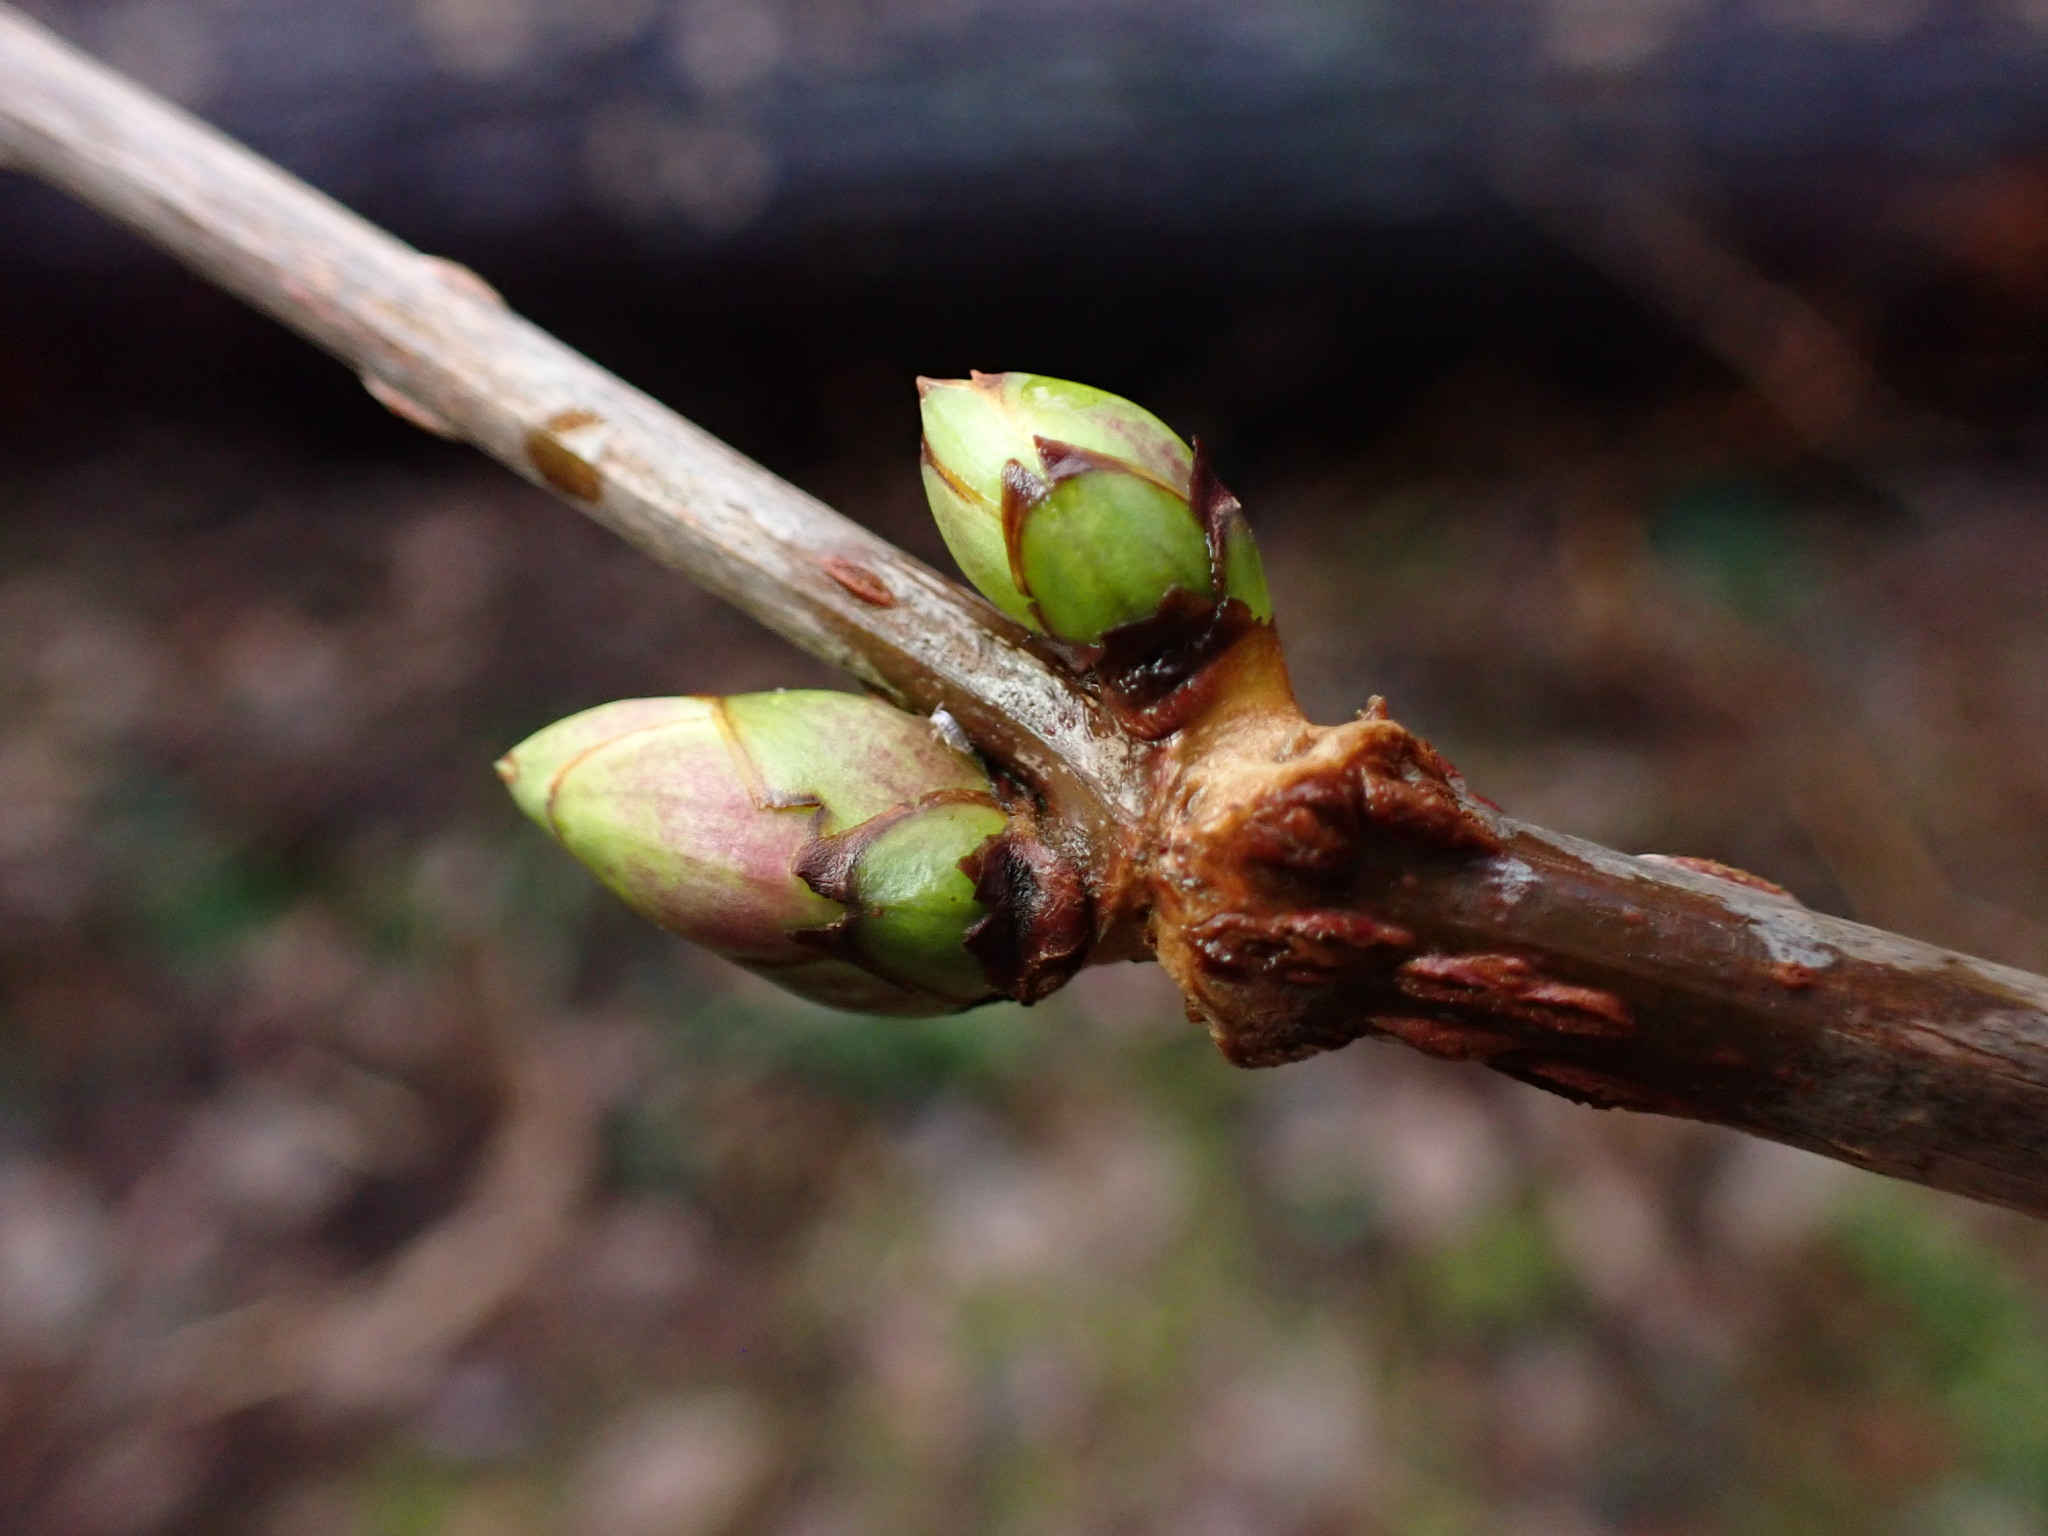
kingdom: Plantae
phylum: Tracheophyta
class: Magnoliopsida
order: Dipsacales
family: Viburnaceae
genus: Sambucus
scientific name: Sambucus racemosa
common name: Red-berried elder
